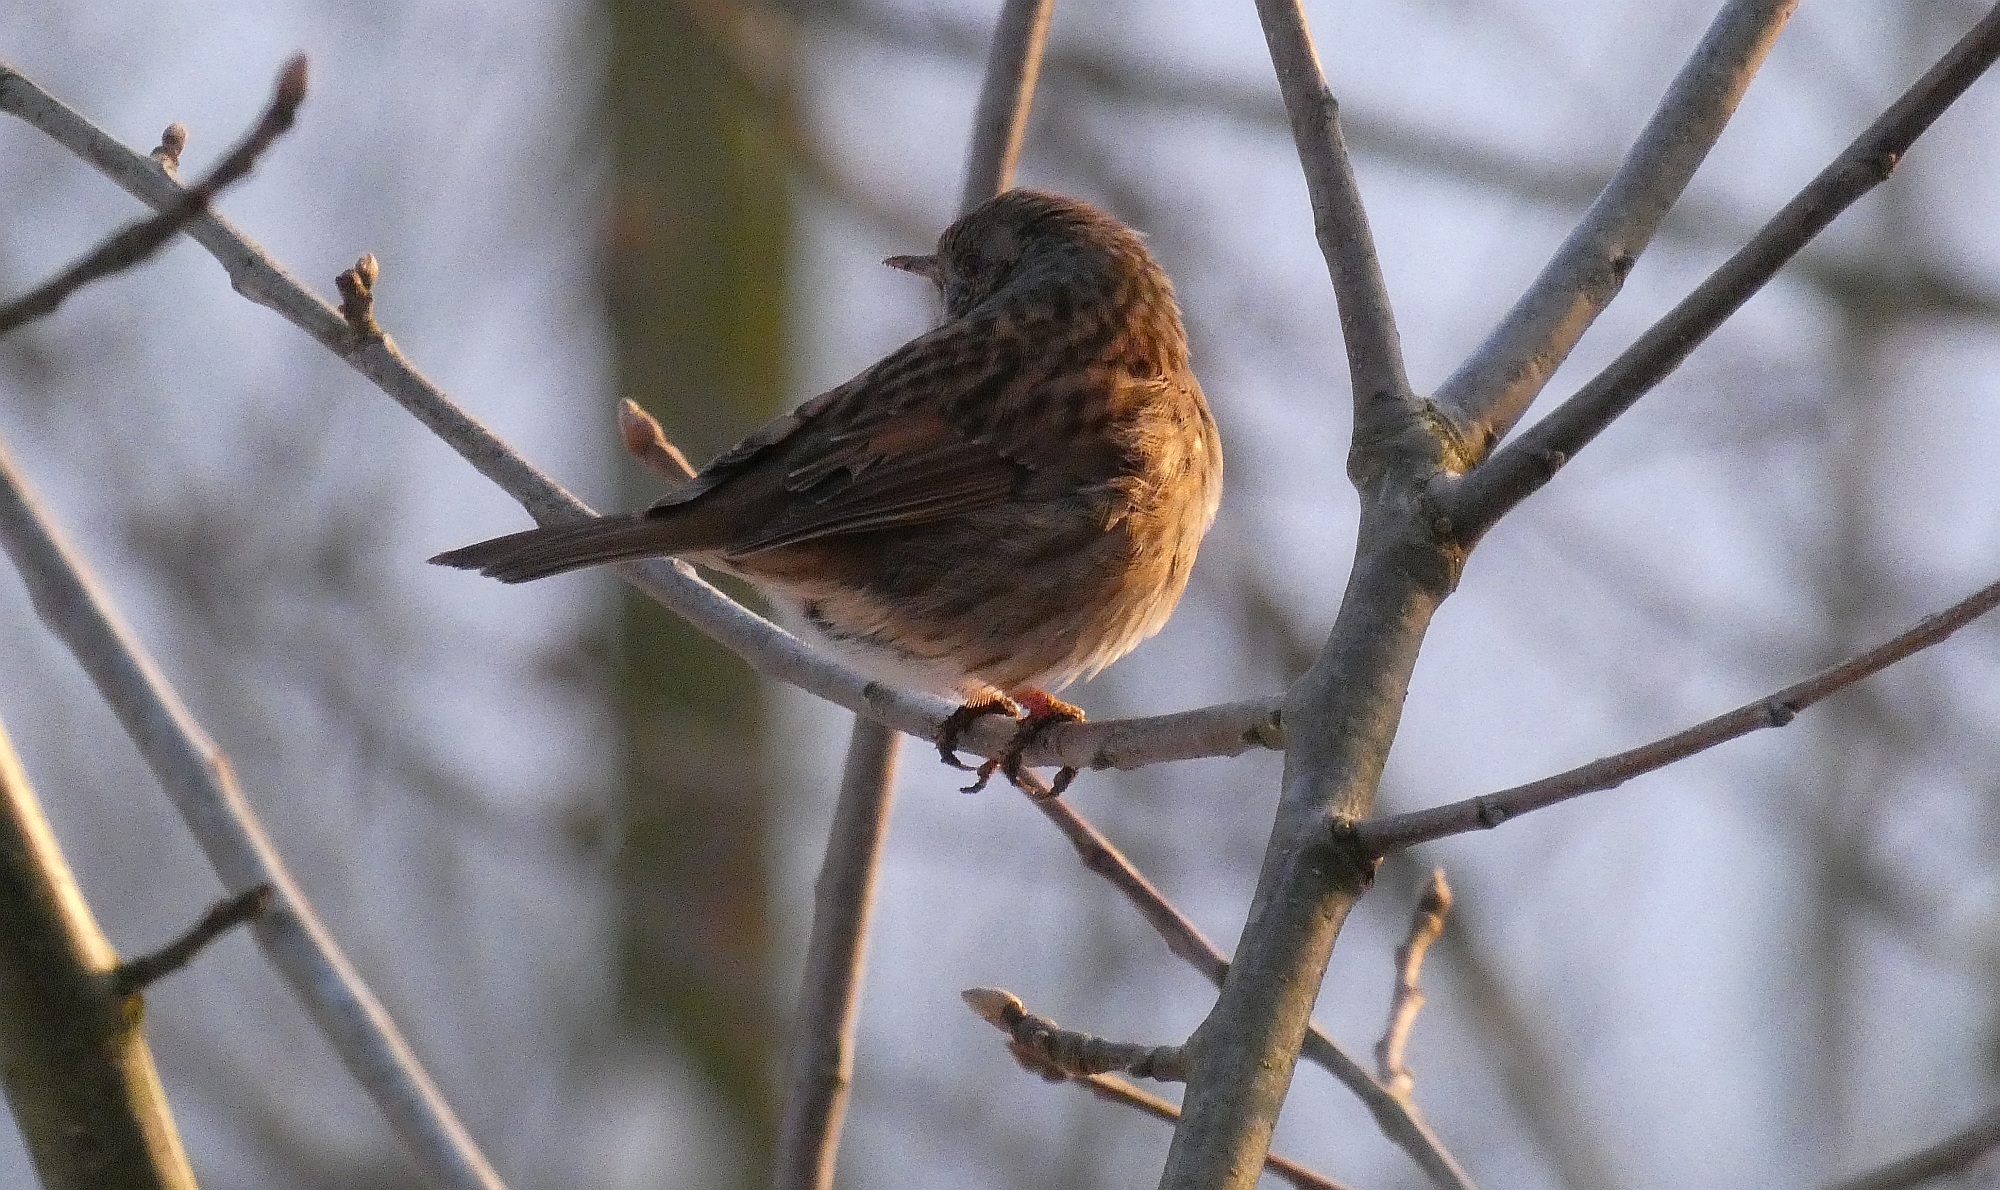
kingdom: Animalia
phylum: Chordata
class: Aves
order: Passeriformes
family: Prunellidae
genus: Prunella
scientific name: Prunella modularis
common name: Dunnock
